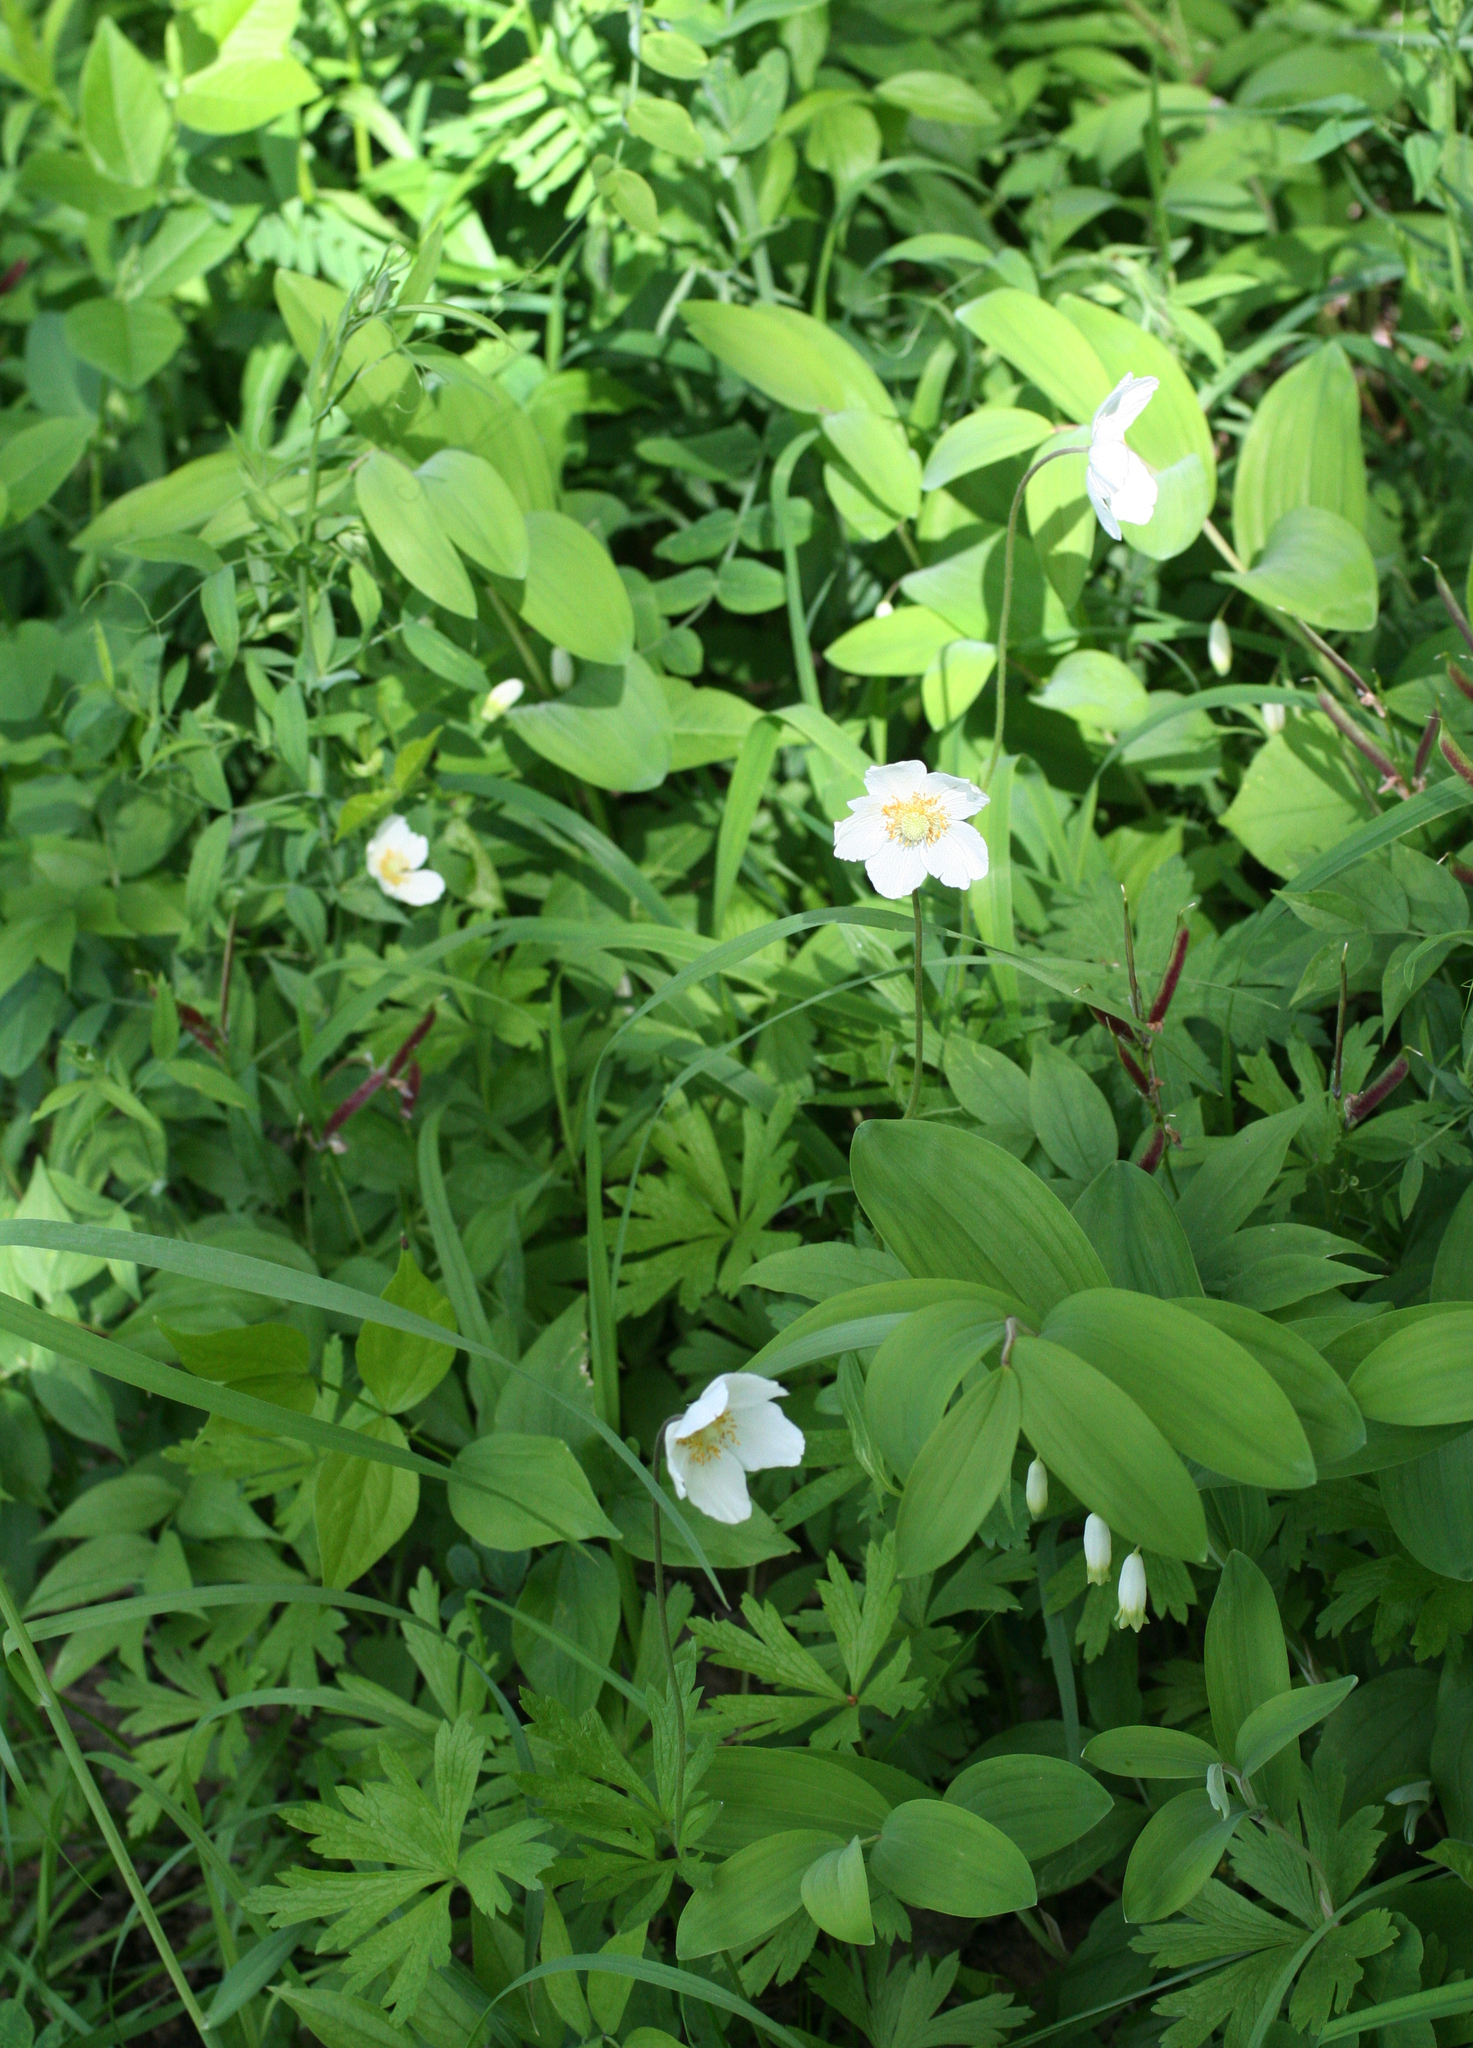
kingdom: Plantae
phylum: Tracheophyta
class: Magnoliopsida
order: Ranunculales
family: Ranunculaceae
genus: Anemone
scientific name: Anemone sylvestris
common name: Snowdrop anemone
